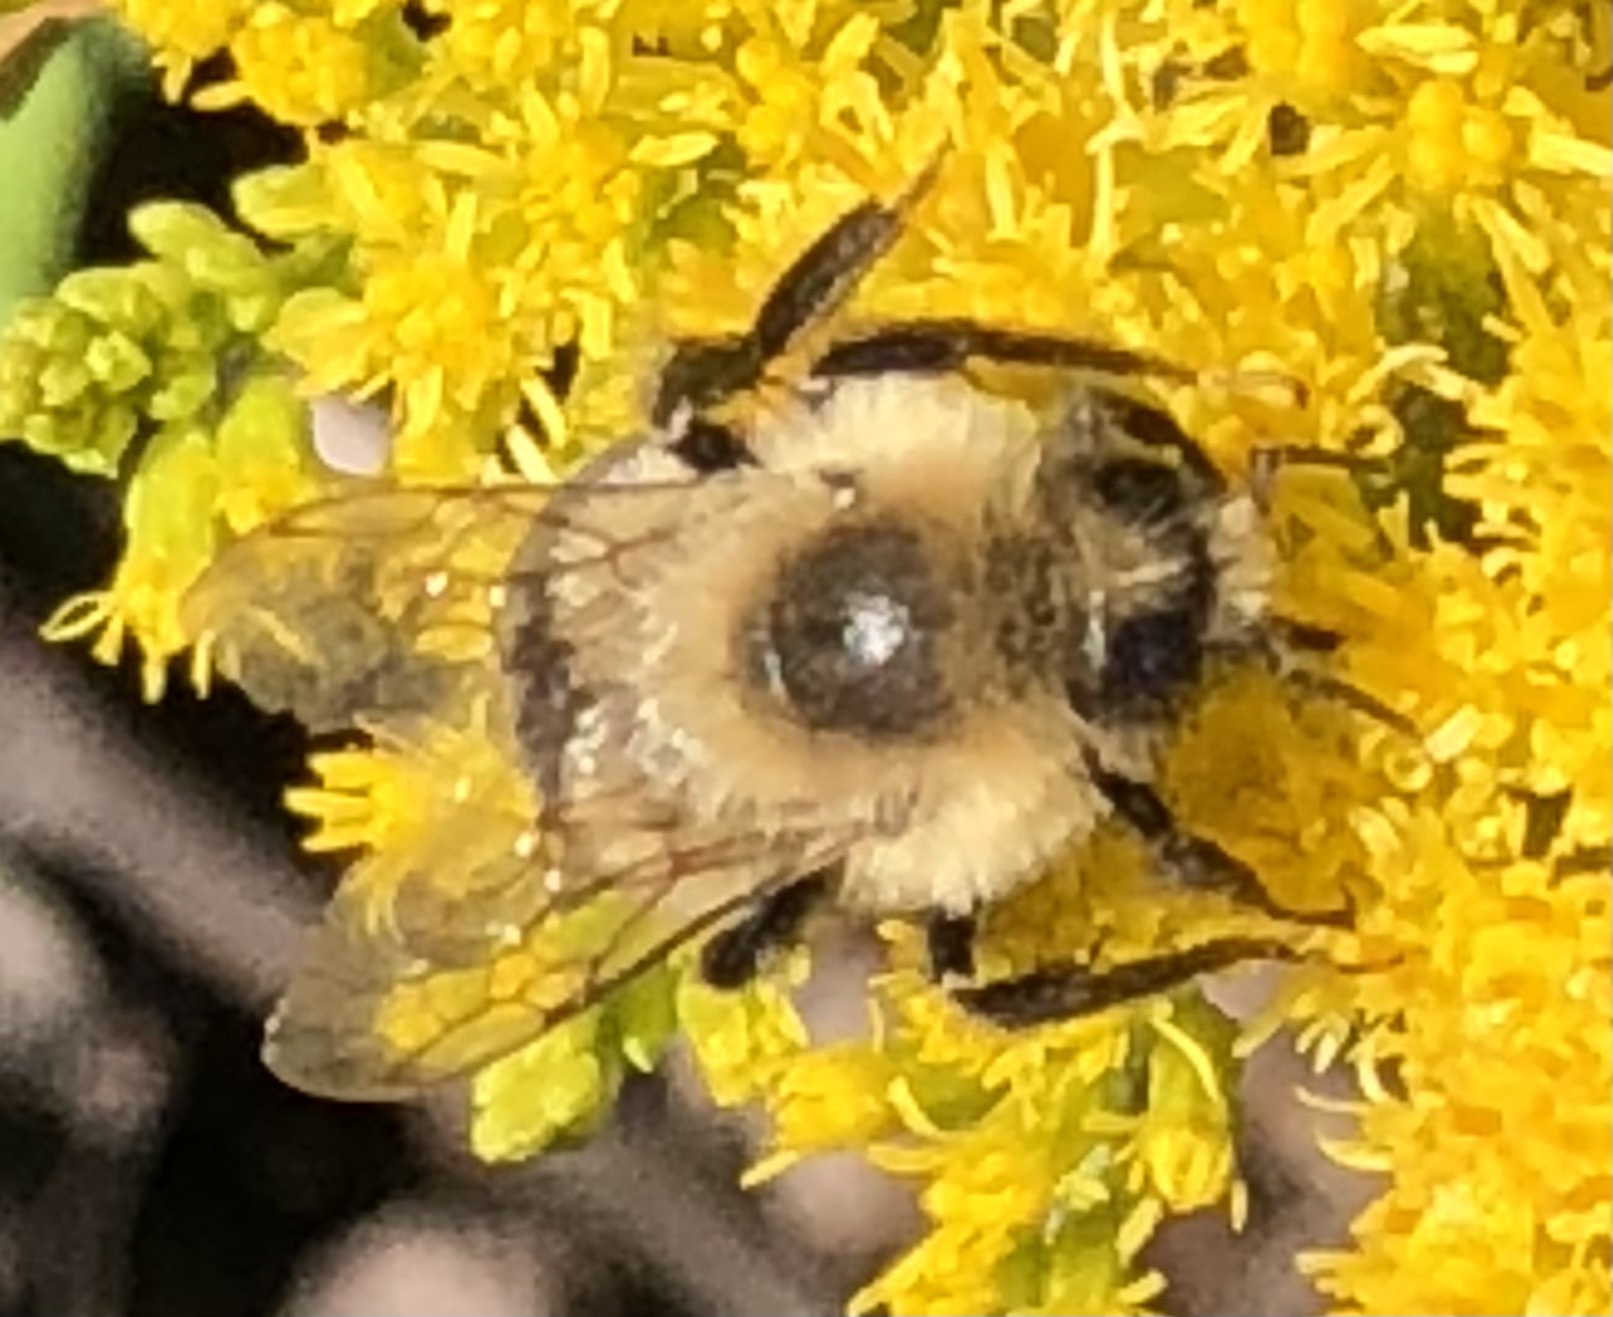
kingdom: Animalia
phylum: Arthropoda
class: Insecta
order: Hymenoptera
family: Apidae
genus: Bombus
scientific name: Bombus impatiens
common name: Common eastern bumble bee
